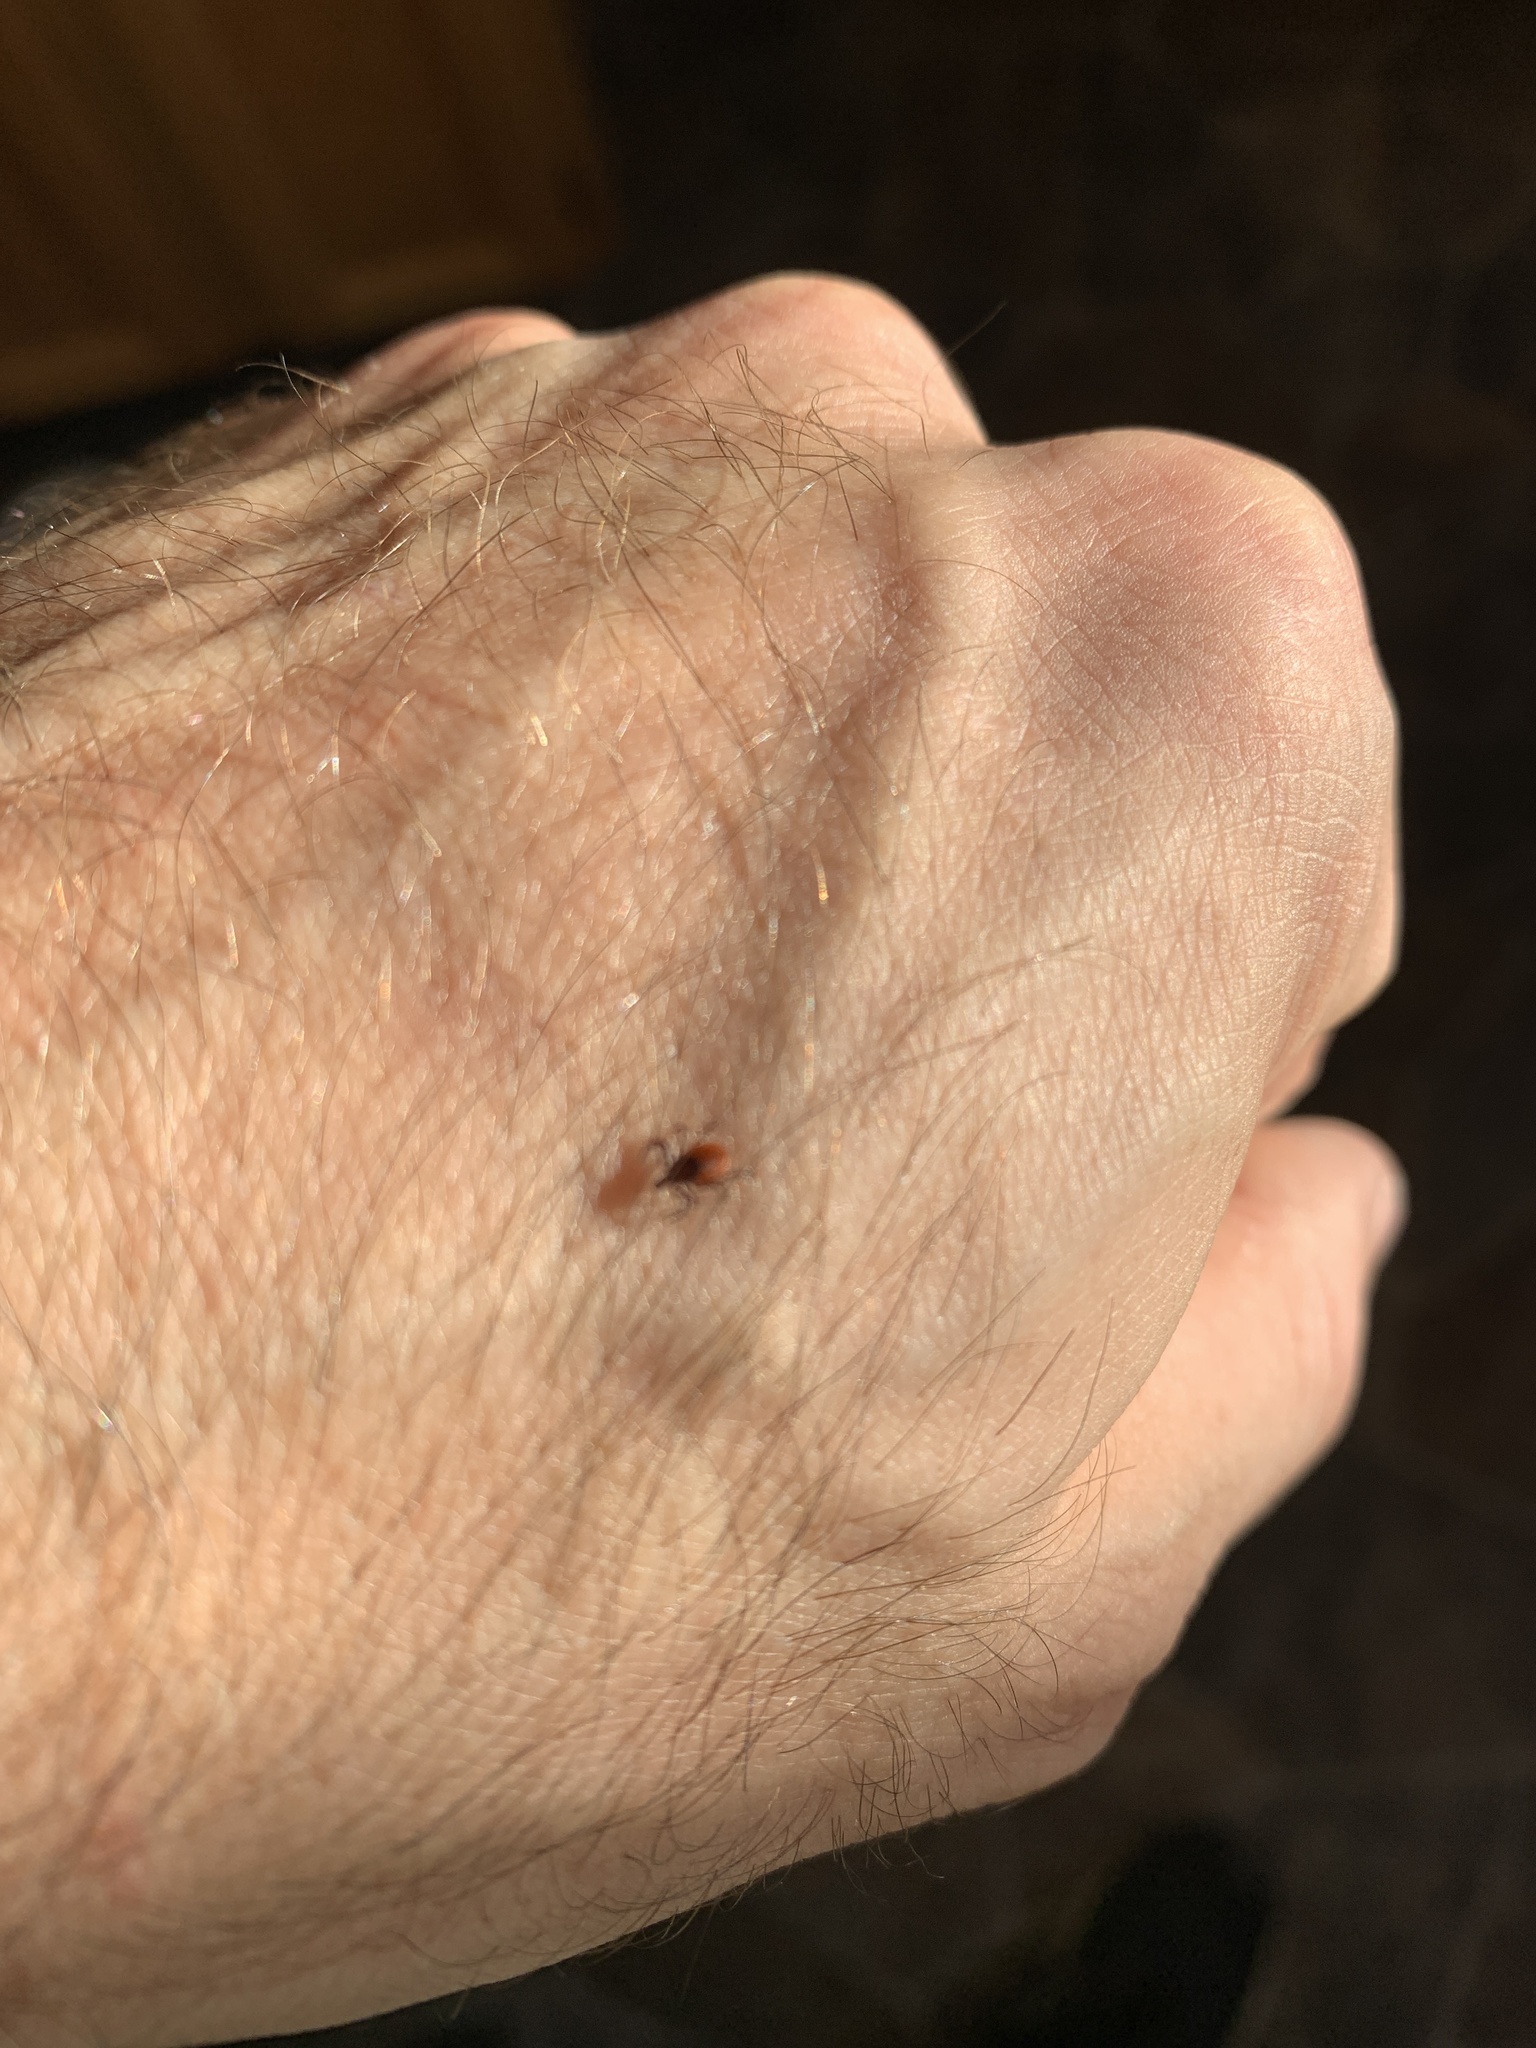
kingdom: Animalia
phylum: Arthropoda
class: Arachnida
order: Ixodida
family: Ixodidae
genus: Ixodes
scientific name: Ixodes scapularis
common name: Black legged tick
